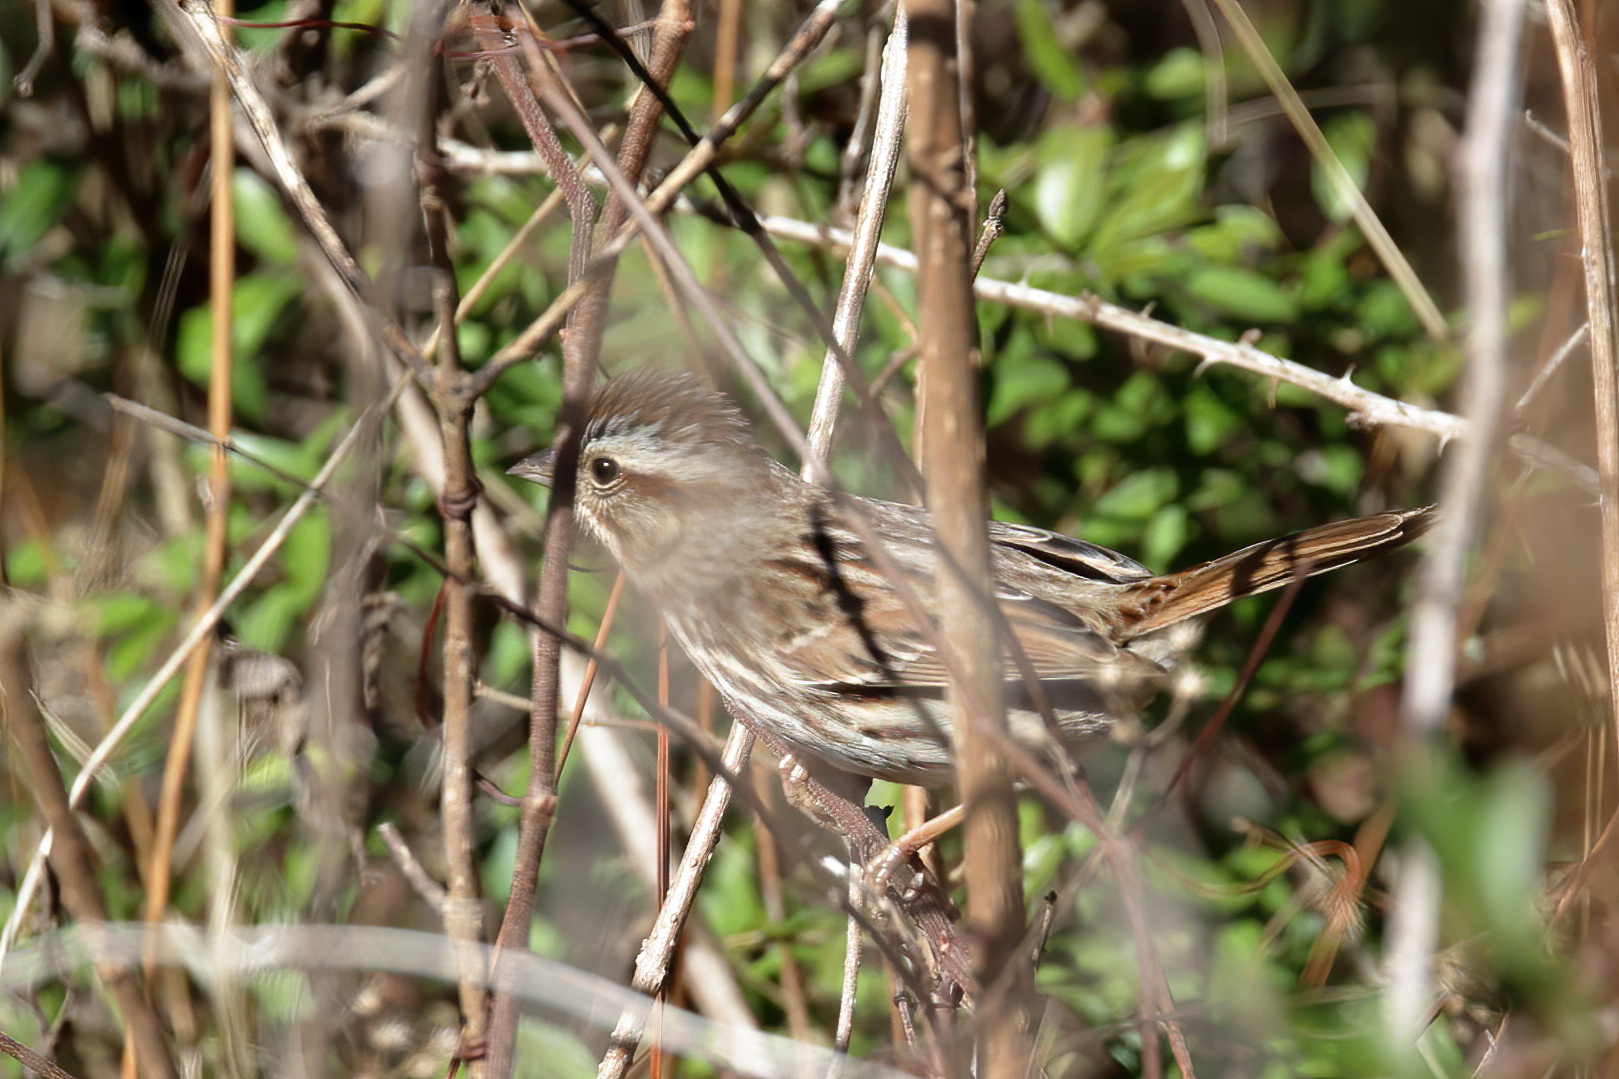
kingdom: Animalia
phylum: Chordata
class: Aves
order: Passeriformes
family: Passerellidae
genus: Melospiza
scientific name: Melospiza georgiana
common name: Swamp sparrow
